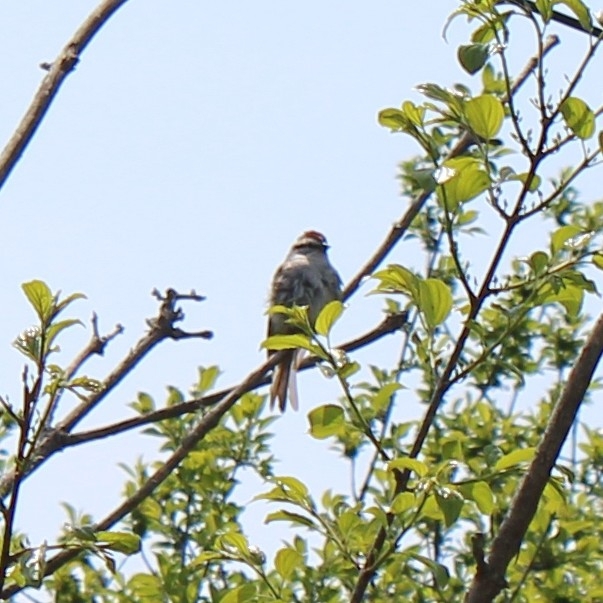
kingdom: Animalia
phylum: Chordata
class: Aves
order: Passeriformes
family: Passerellidae
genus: Spizella
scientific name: Spizella passerina
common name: Chipping sparrow
